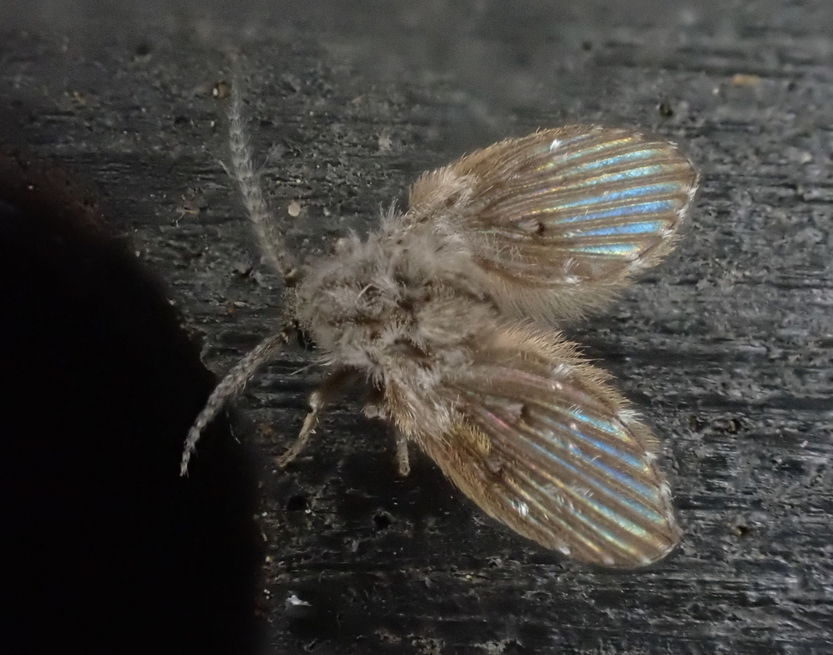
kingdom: Animalia
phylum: Arthropoda
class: Insecta
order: Diptera
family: Psychodidae
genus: Clogmia
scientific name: Clogmia albipunctatus
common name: White-spotted moth fly
